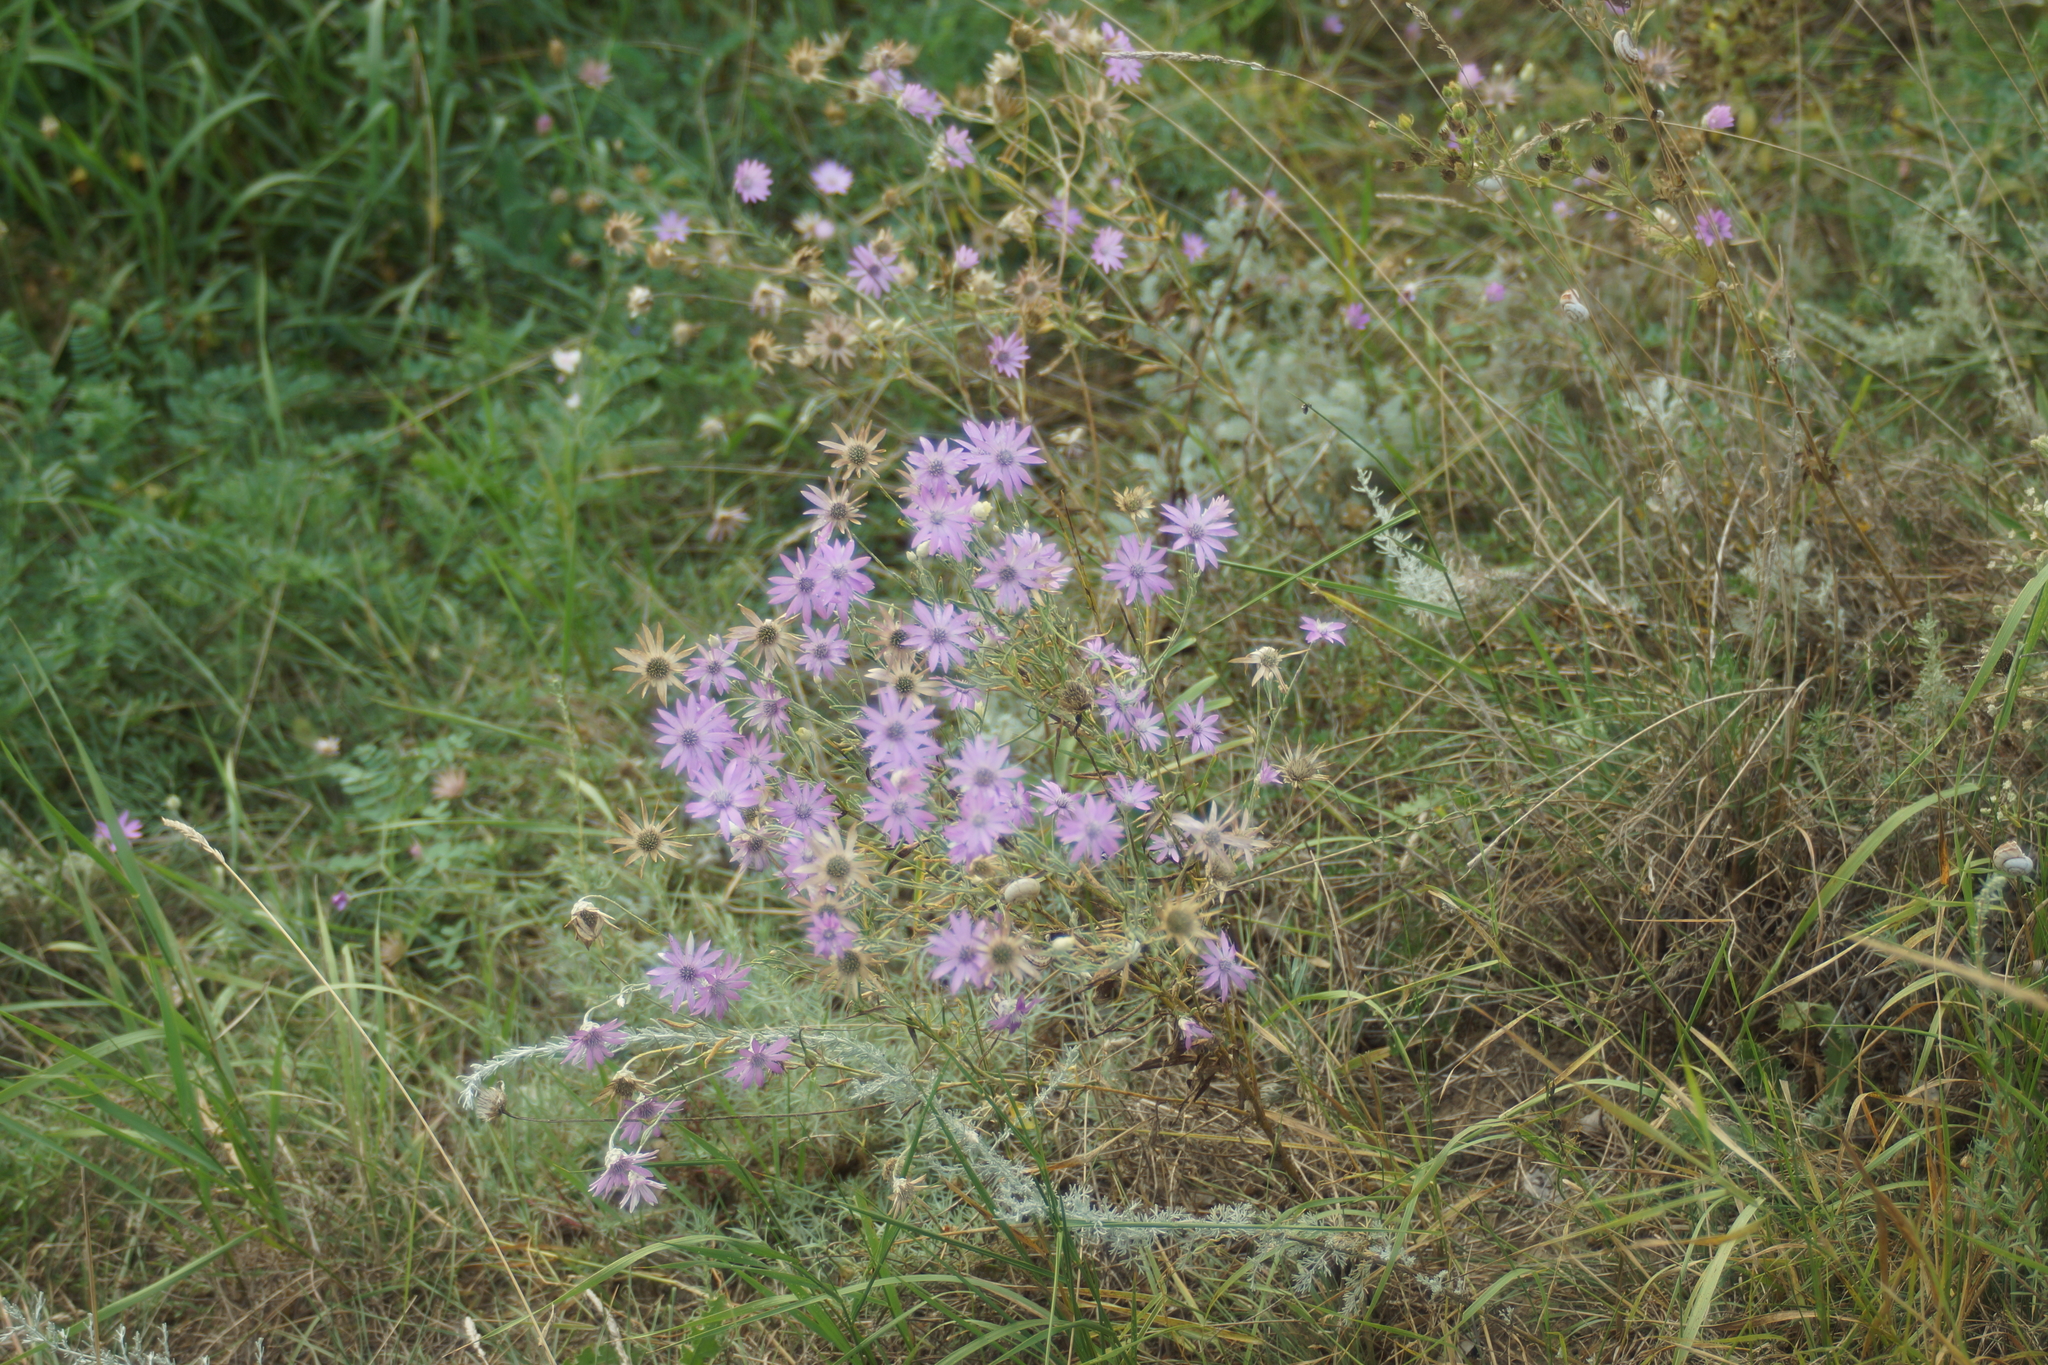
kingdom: Plantae
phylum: Tracheophyta
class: Magnoliopsida
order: Asterales
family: Asteraceae
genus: Xeranthemum
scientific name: Xeranthemum annuum
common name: Immortelle
